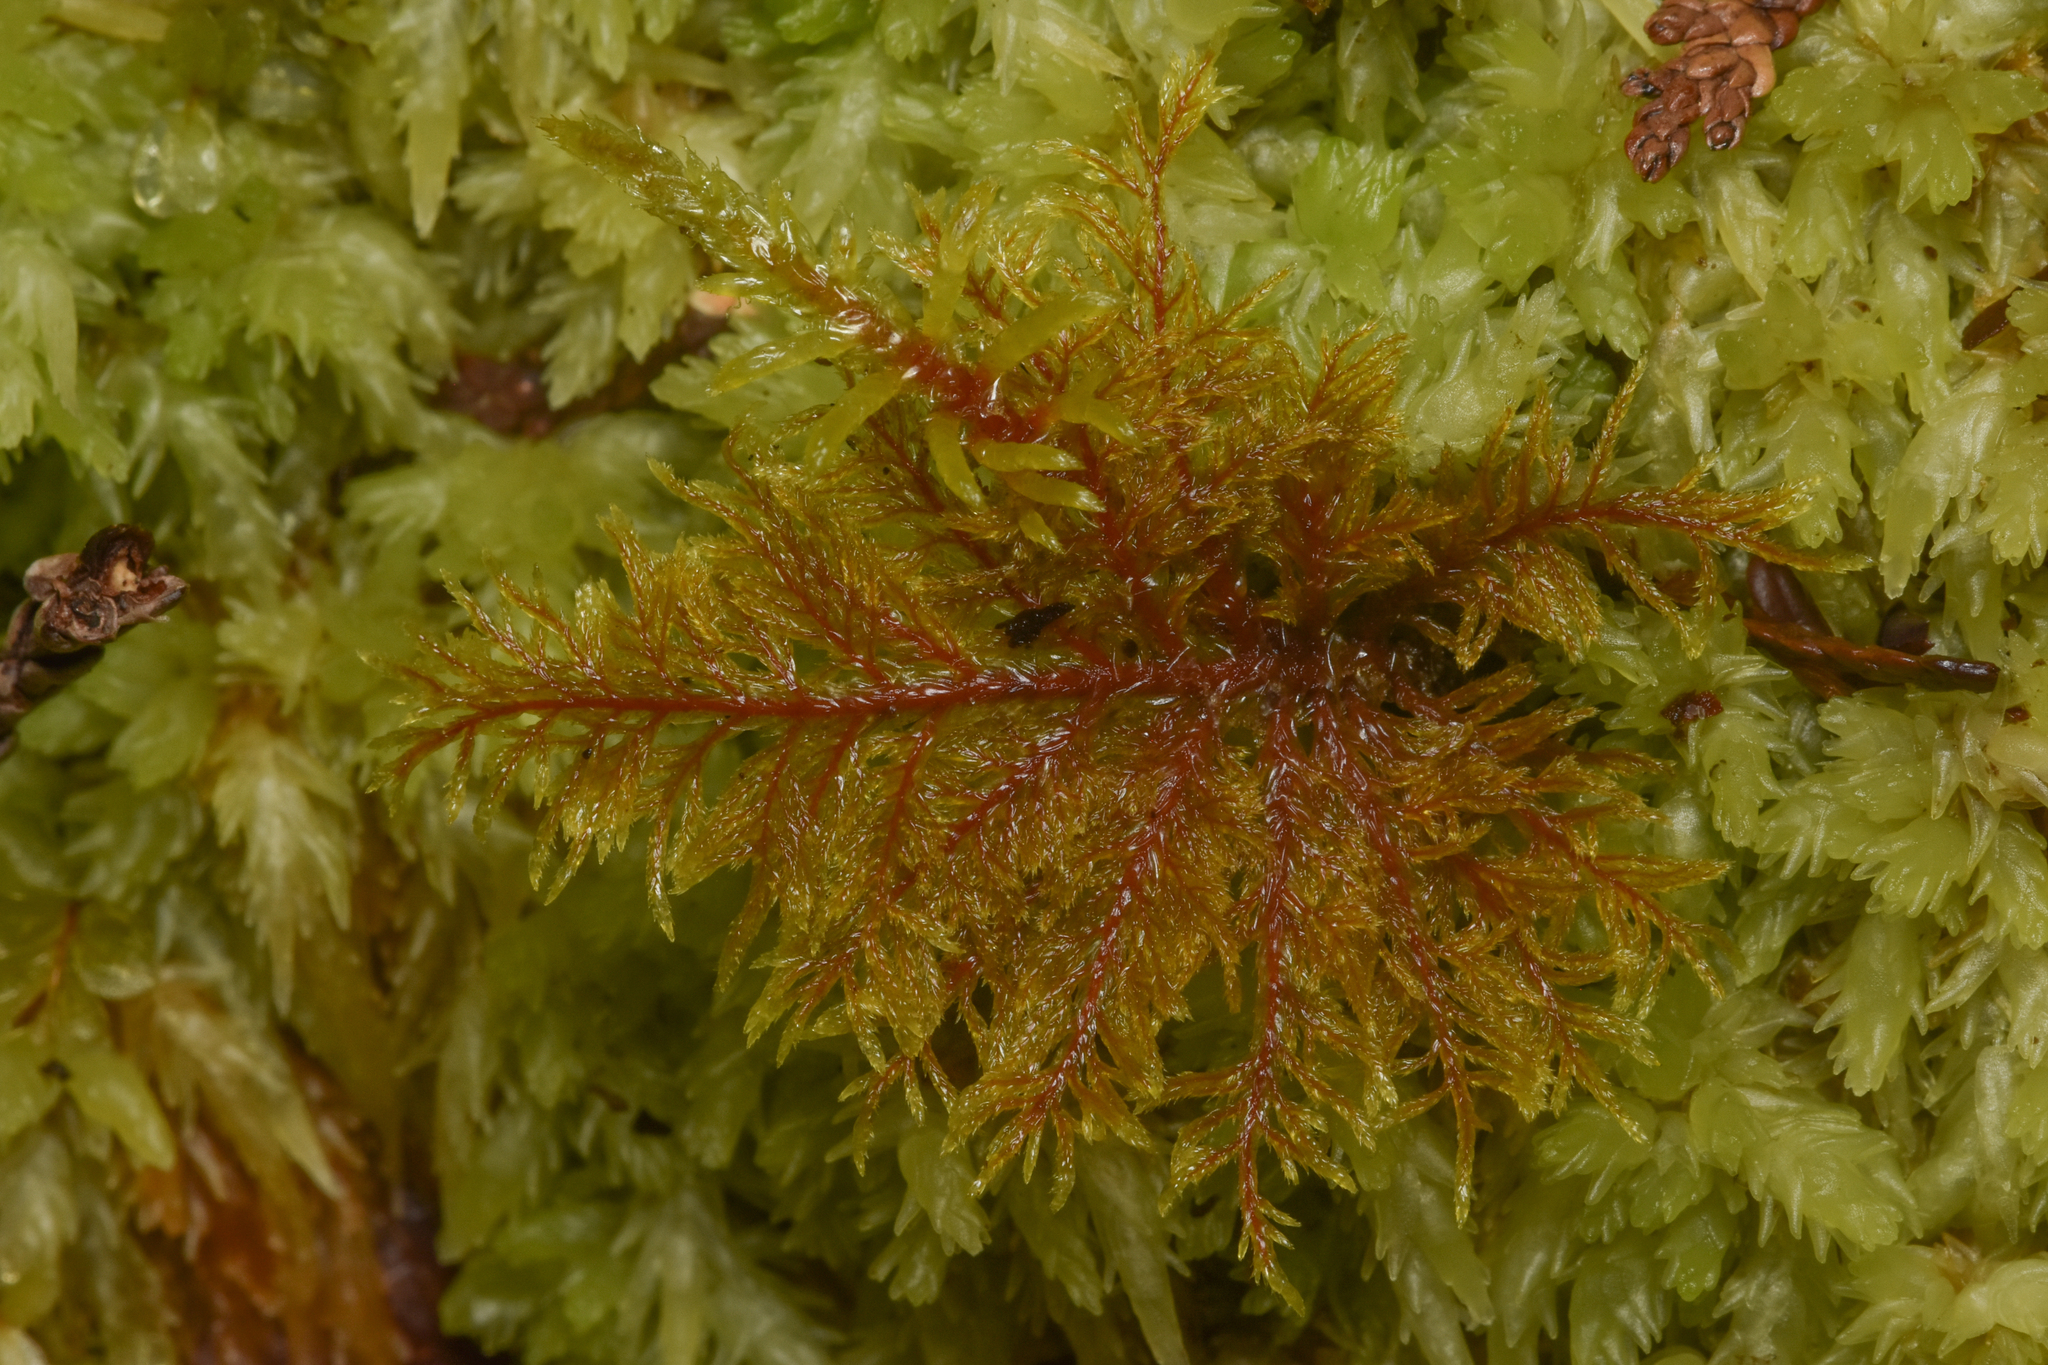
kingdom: Plantae
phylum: Bryophyta
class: Bryopsida
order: Hypnales
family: Hylocomiaceae
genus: Hylocomium
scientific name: Hylocomium splendens
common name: Stairstep moss
